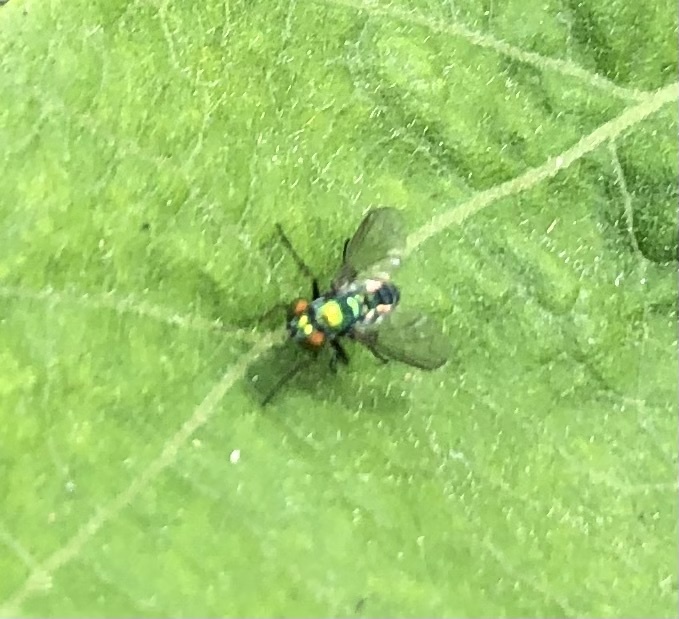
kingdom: Animalia
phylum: Arthropoda
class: Insecta
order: Diptera
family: Dolichopodidae
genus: Condylostylus
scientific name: Condylostylus longicornis
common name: Long-legged fly
